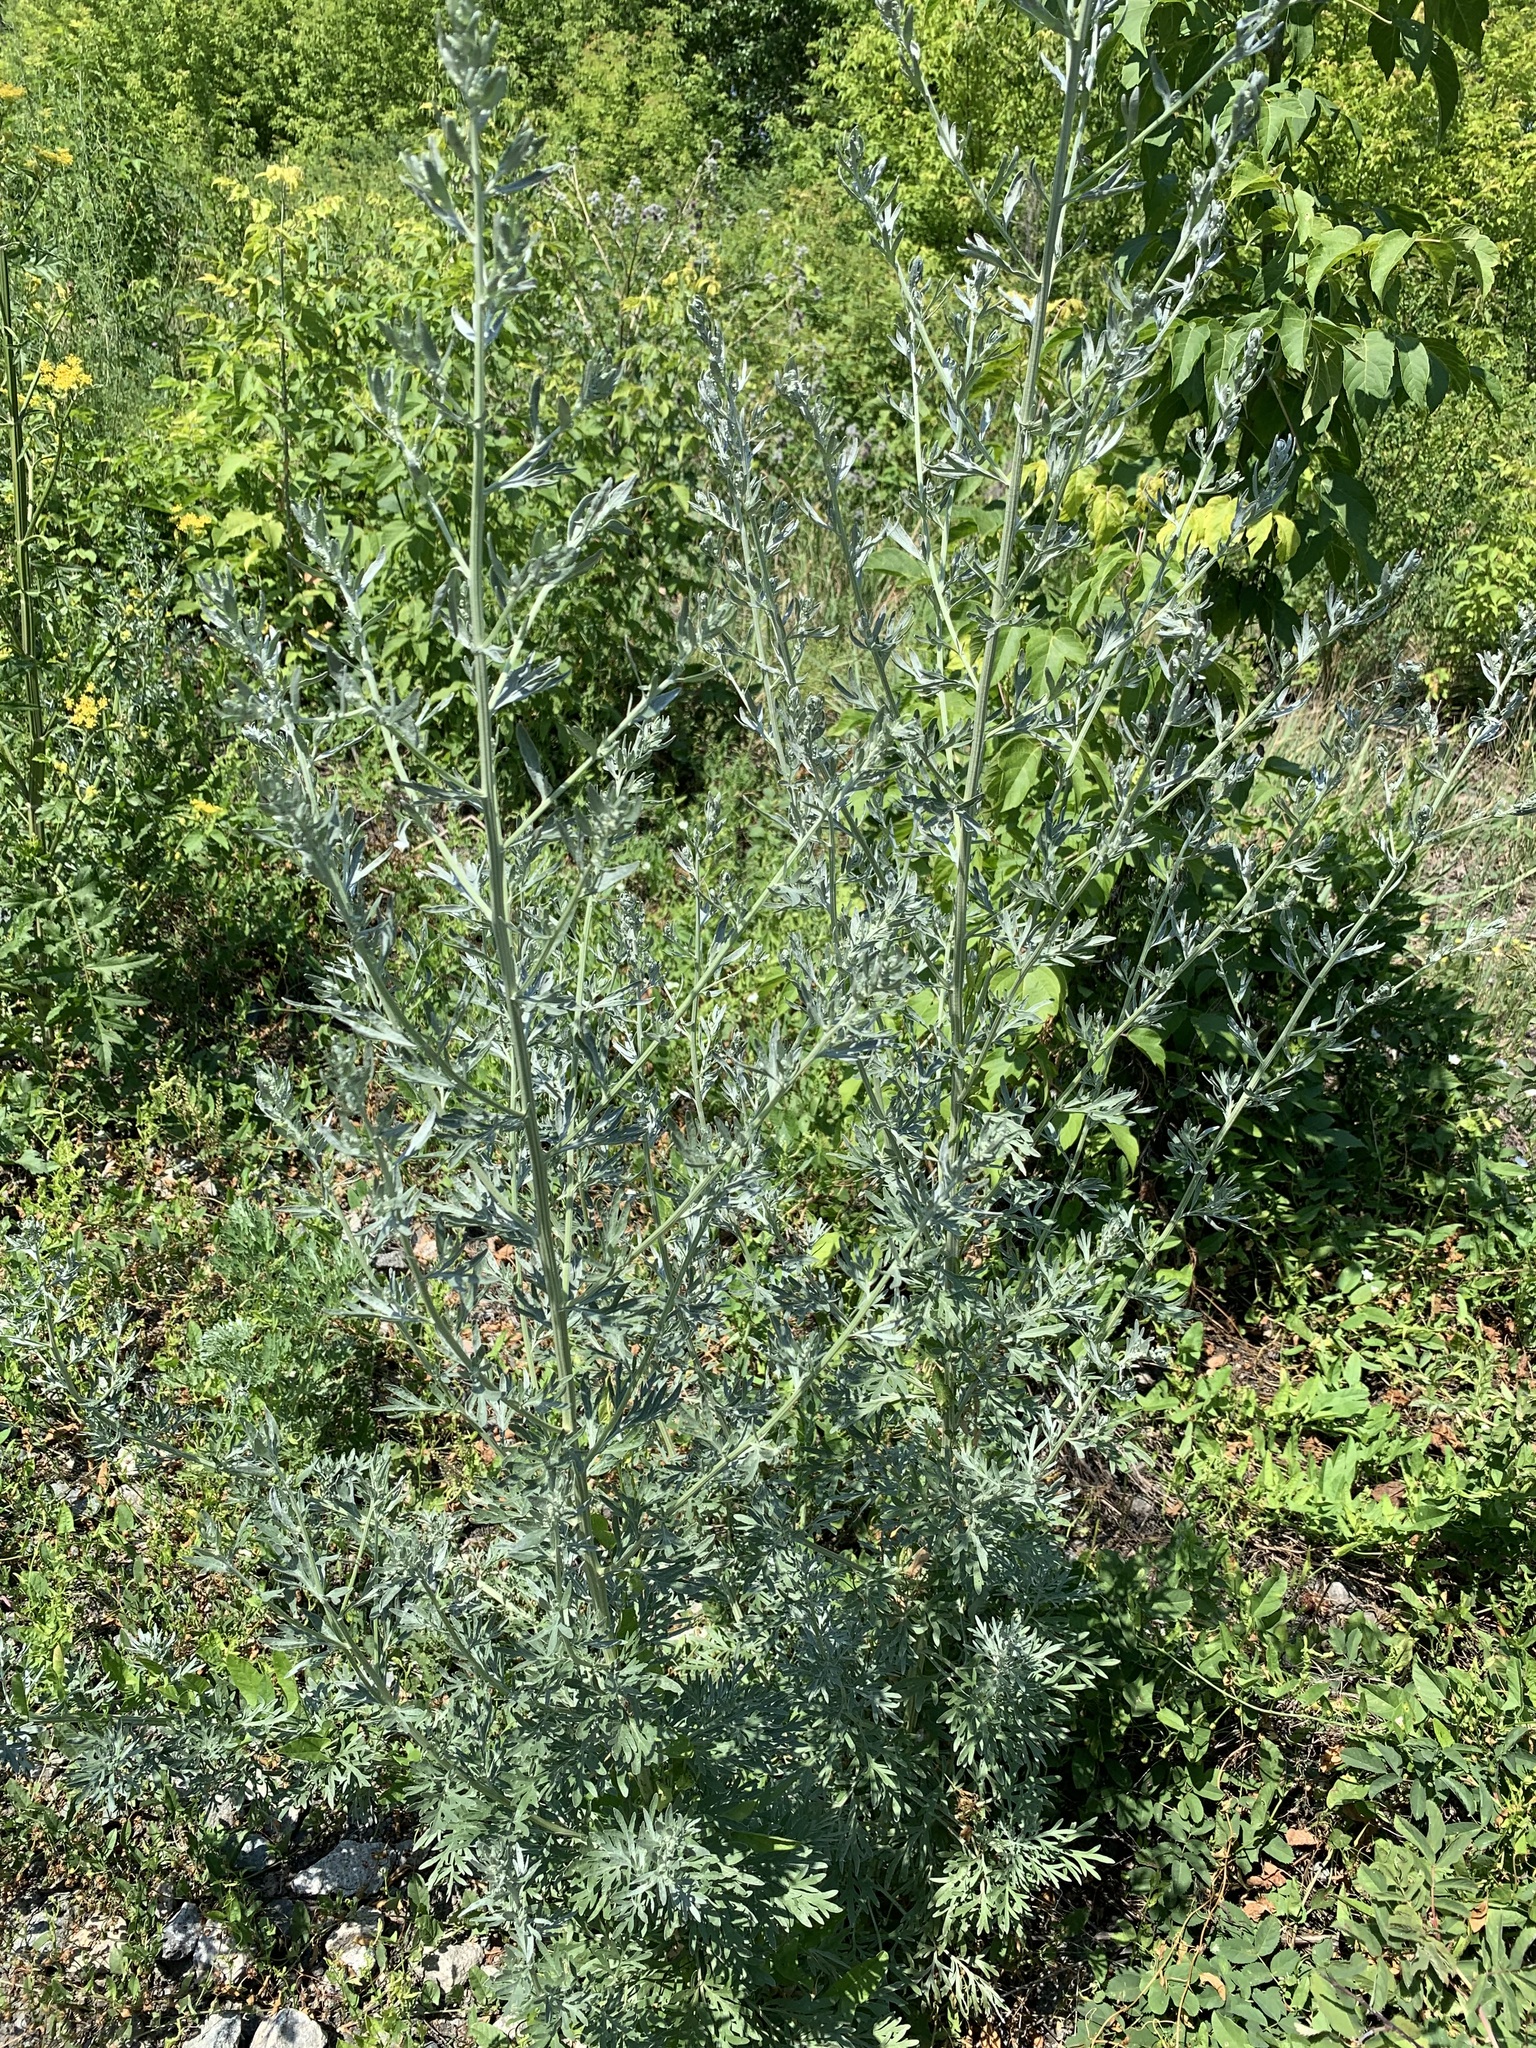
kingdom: Plantae
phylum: Tracheophyta
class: Magnoliopsida
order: Asterales
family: Asteraceae
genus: Artemisia
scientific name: Artemisia absinthium
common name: Wormwood
